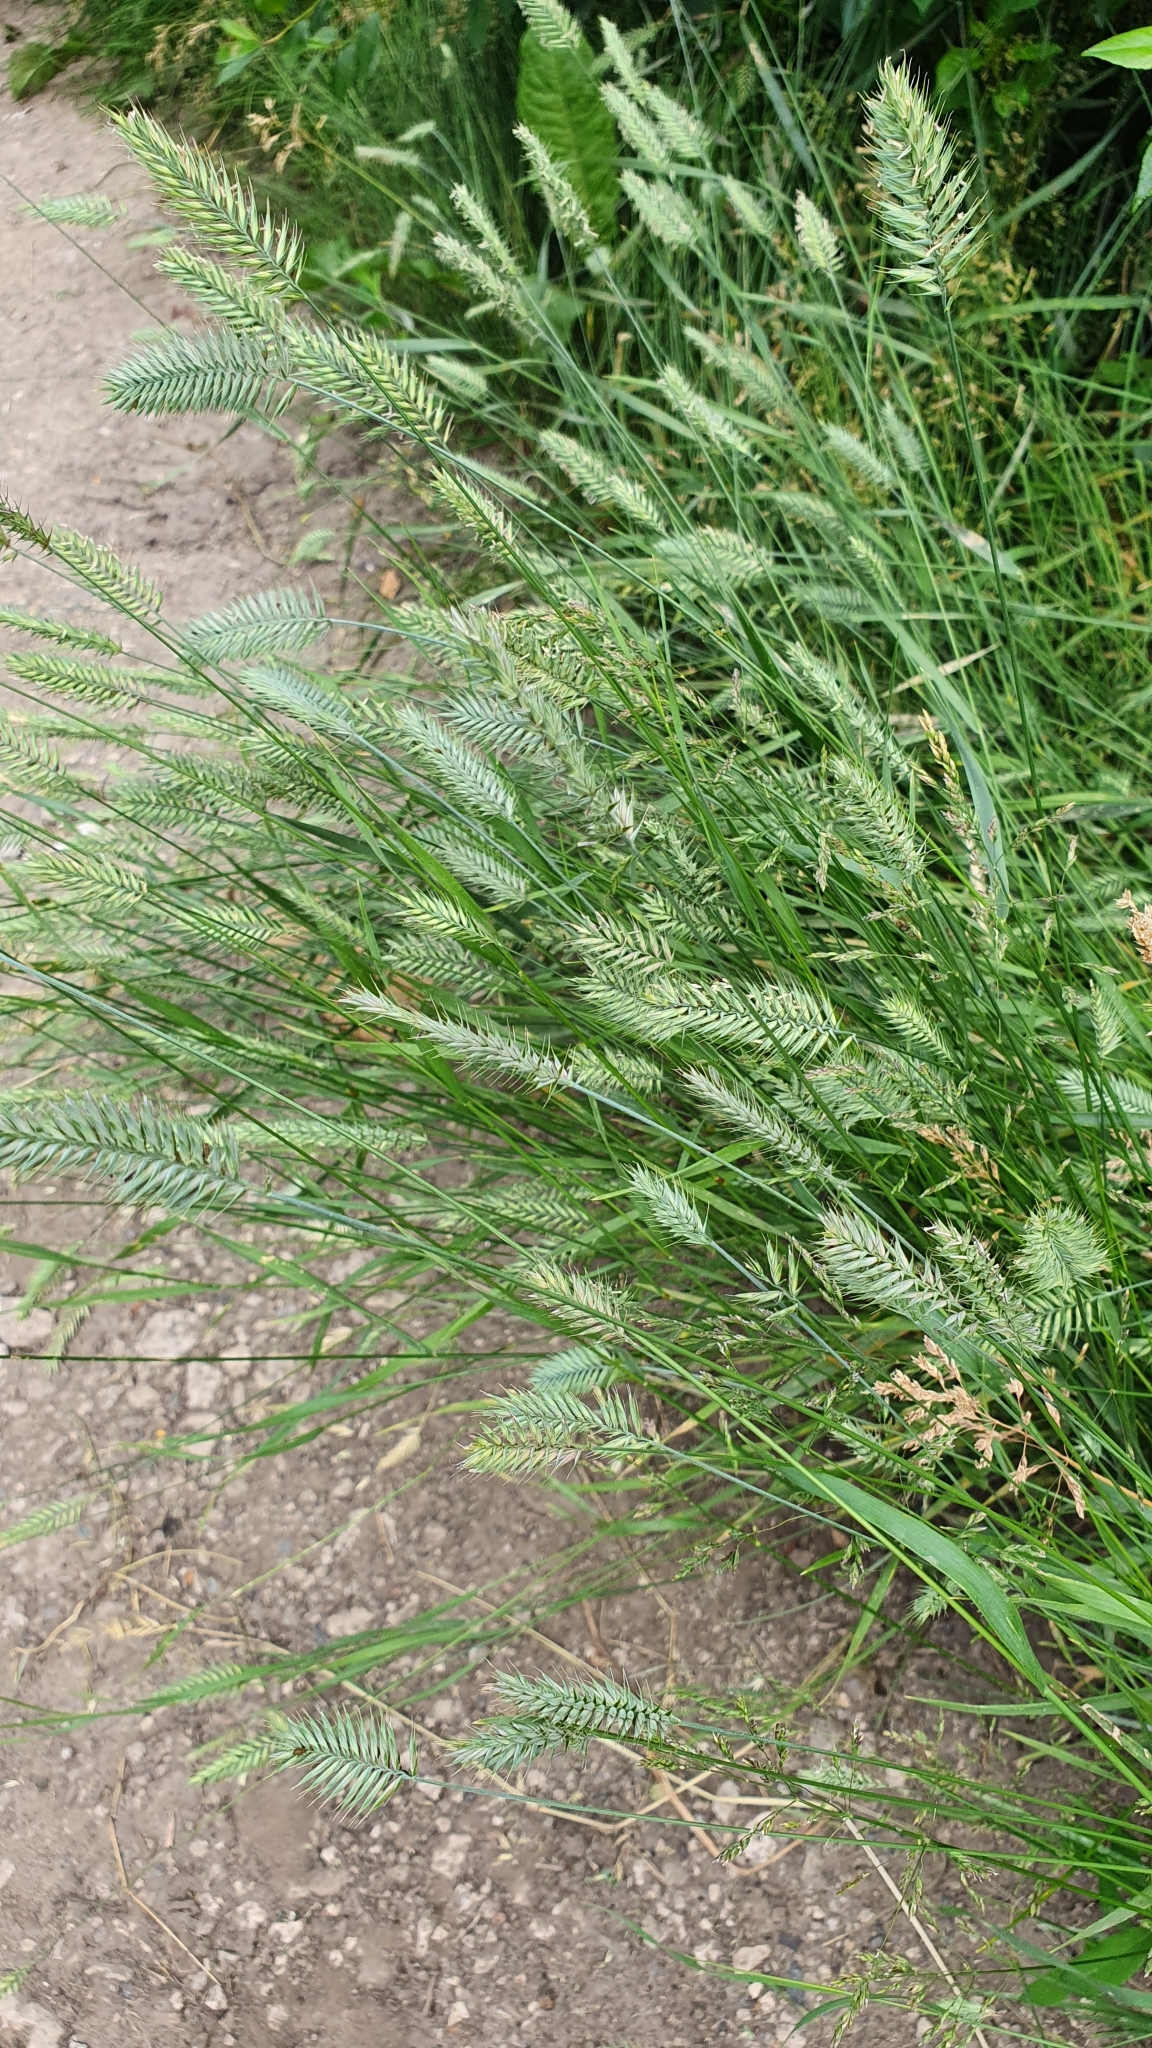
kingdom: Plantae
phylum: Tracheophyta
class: Liliopsida
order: Poales
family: Poaceae
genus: Agropyron
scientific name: Agropyron cristatum
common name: Crested wheatgrass
